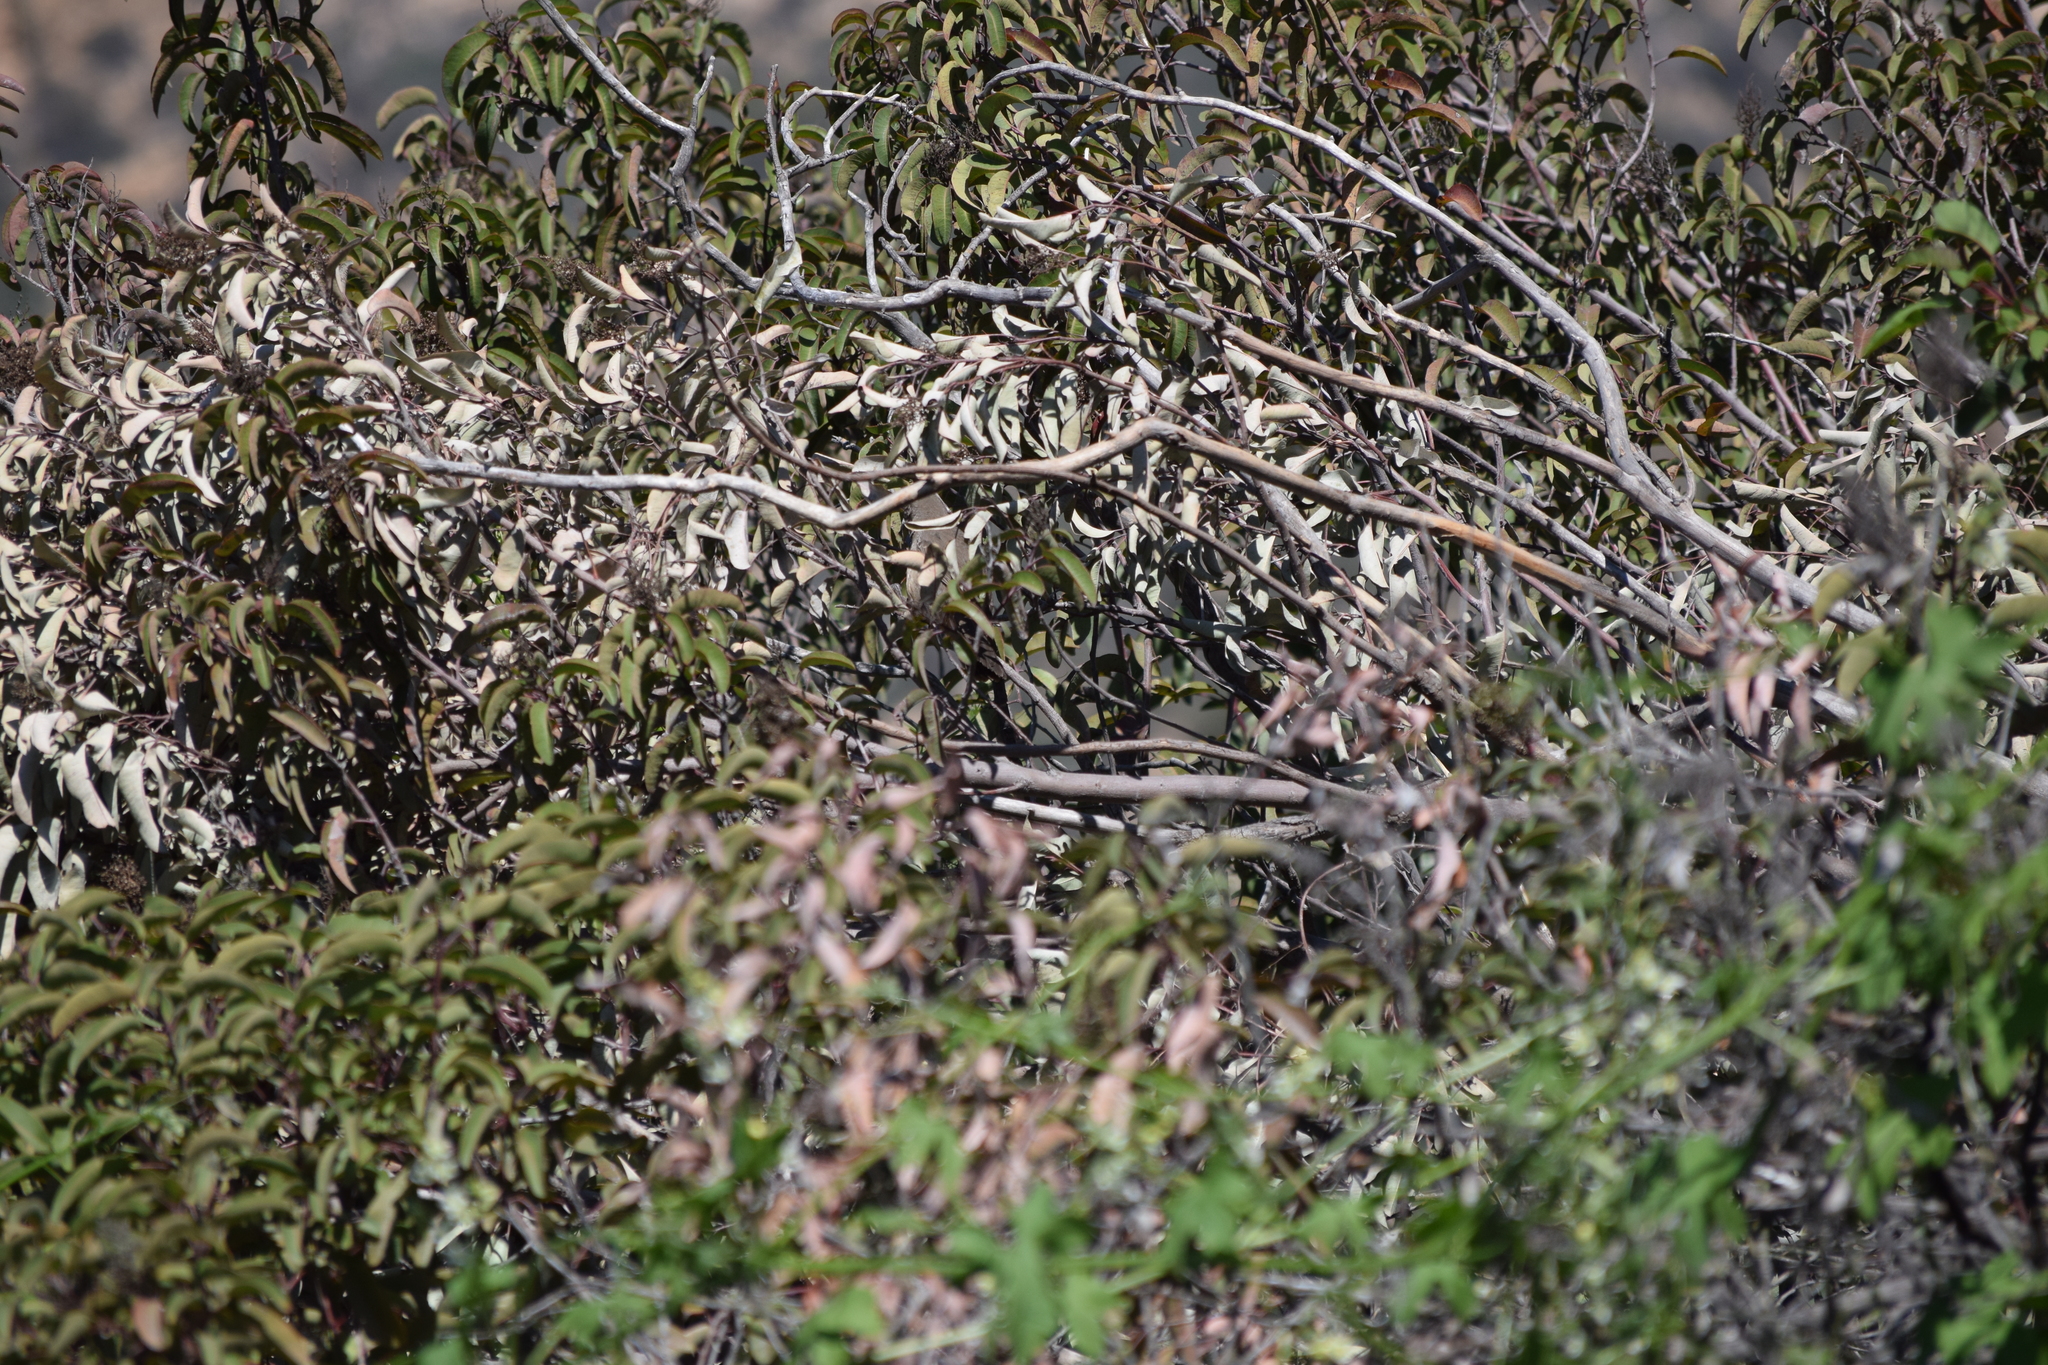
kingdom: Plantae
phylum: Tracheophyta
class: Magnoliopsida
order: Sapindales
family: Anacardiaceae
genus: Malosma
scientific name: Malosma laurina
